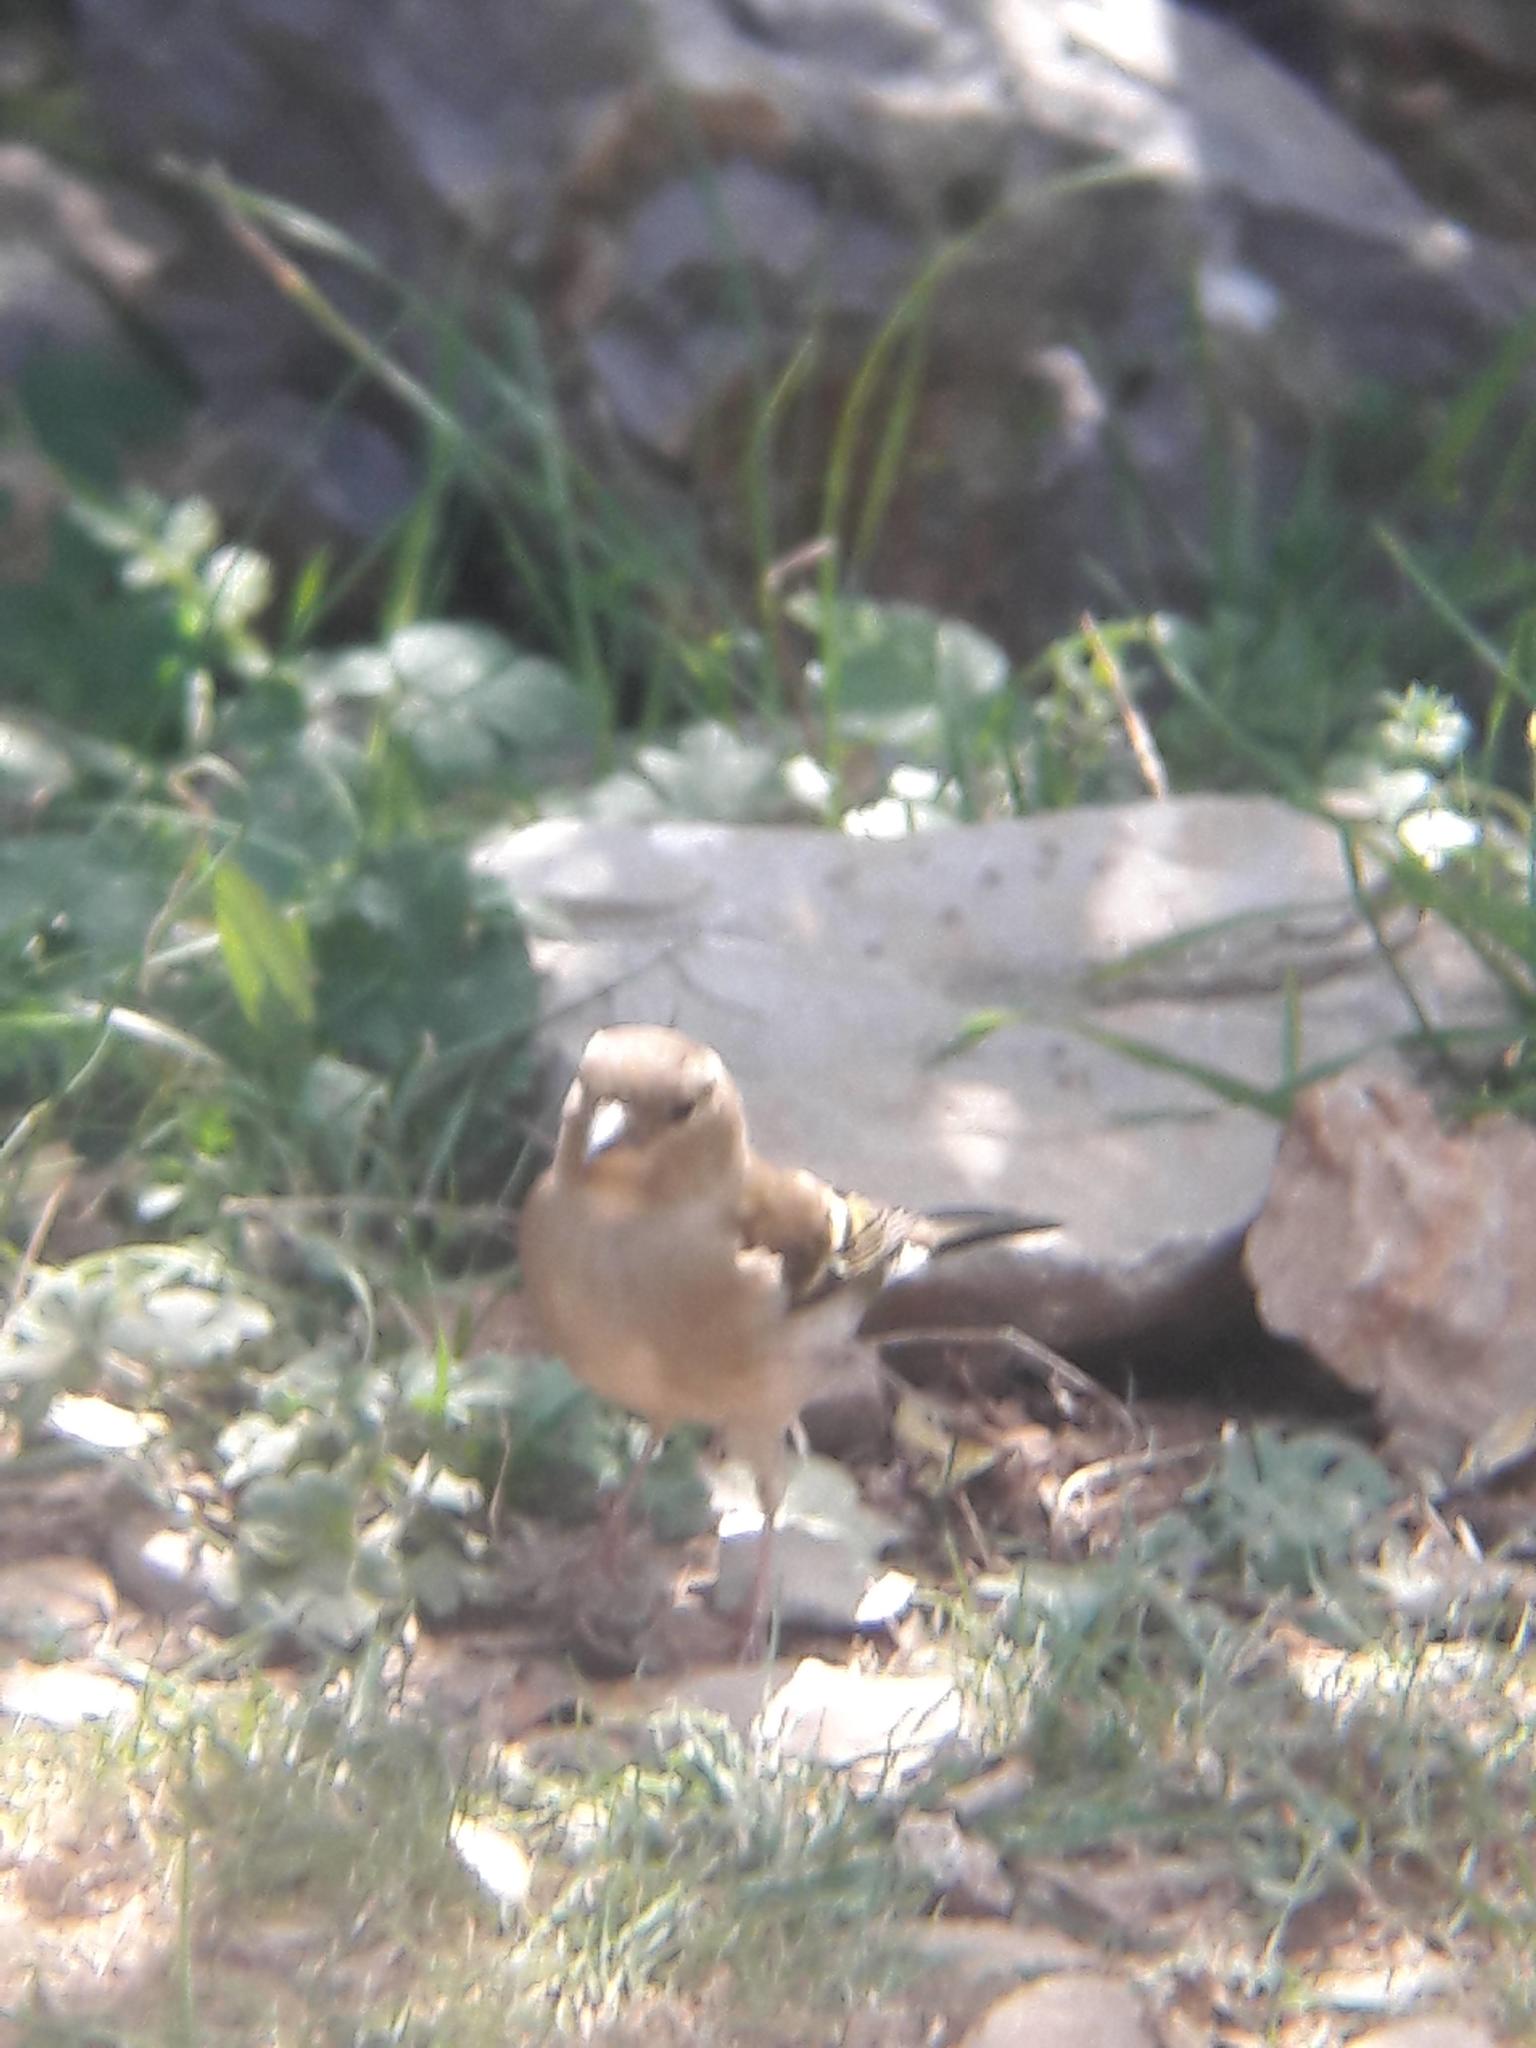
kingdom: Animalia
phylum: Chordata
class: Aves
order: Passeriformes
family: Fringillidae
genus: Fringilla
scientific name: Fringilla coelebs
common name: Common chaffinch
